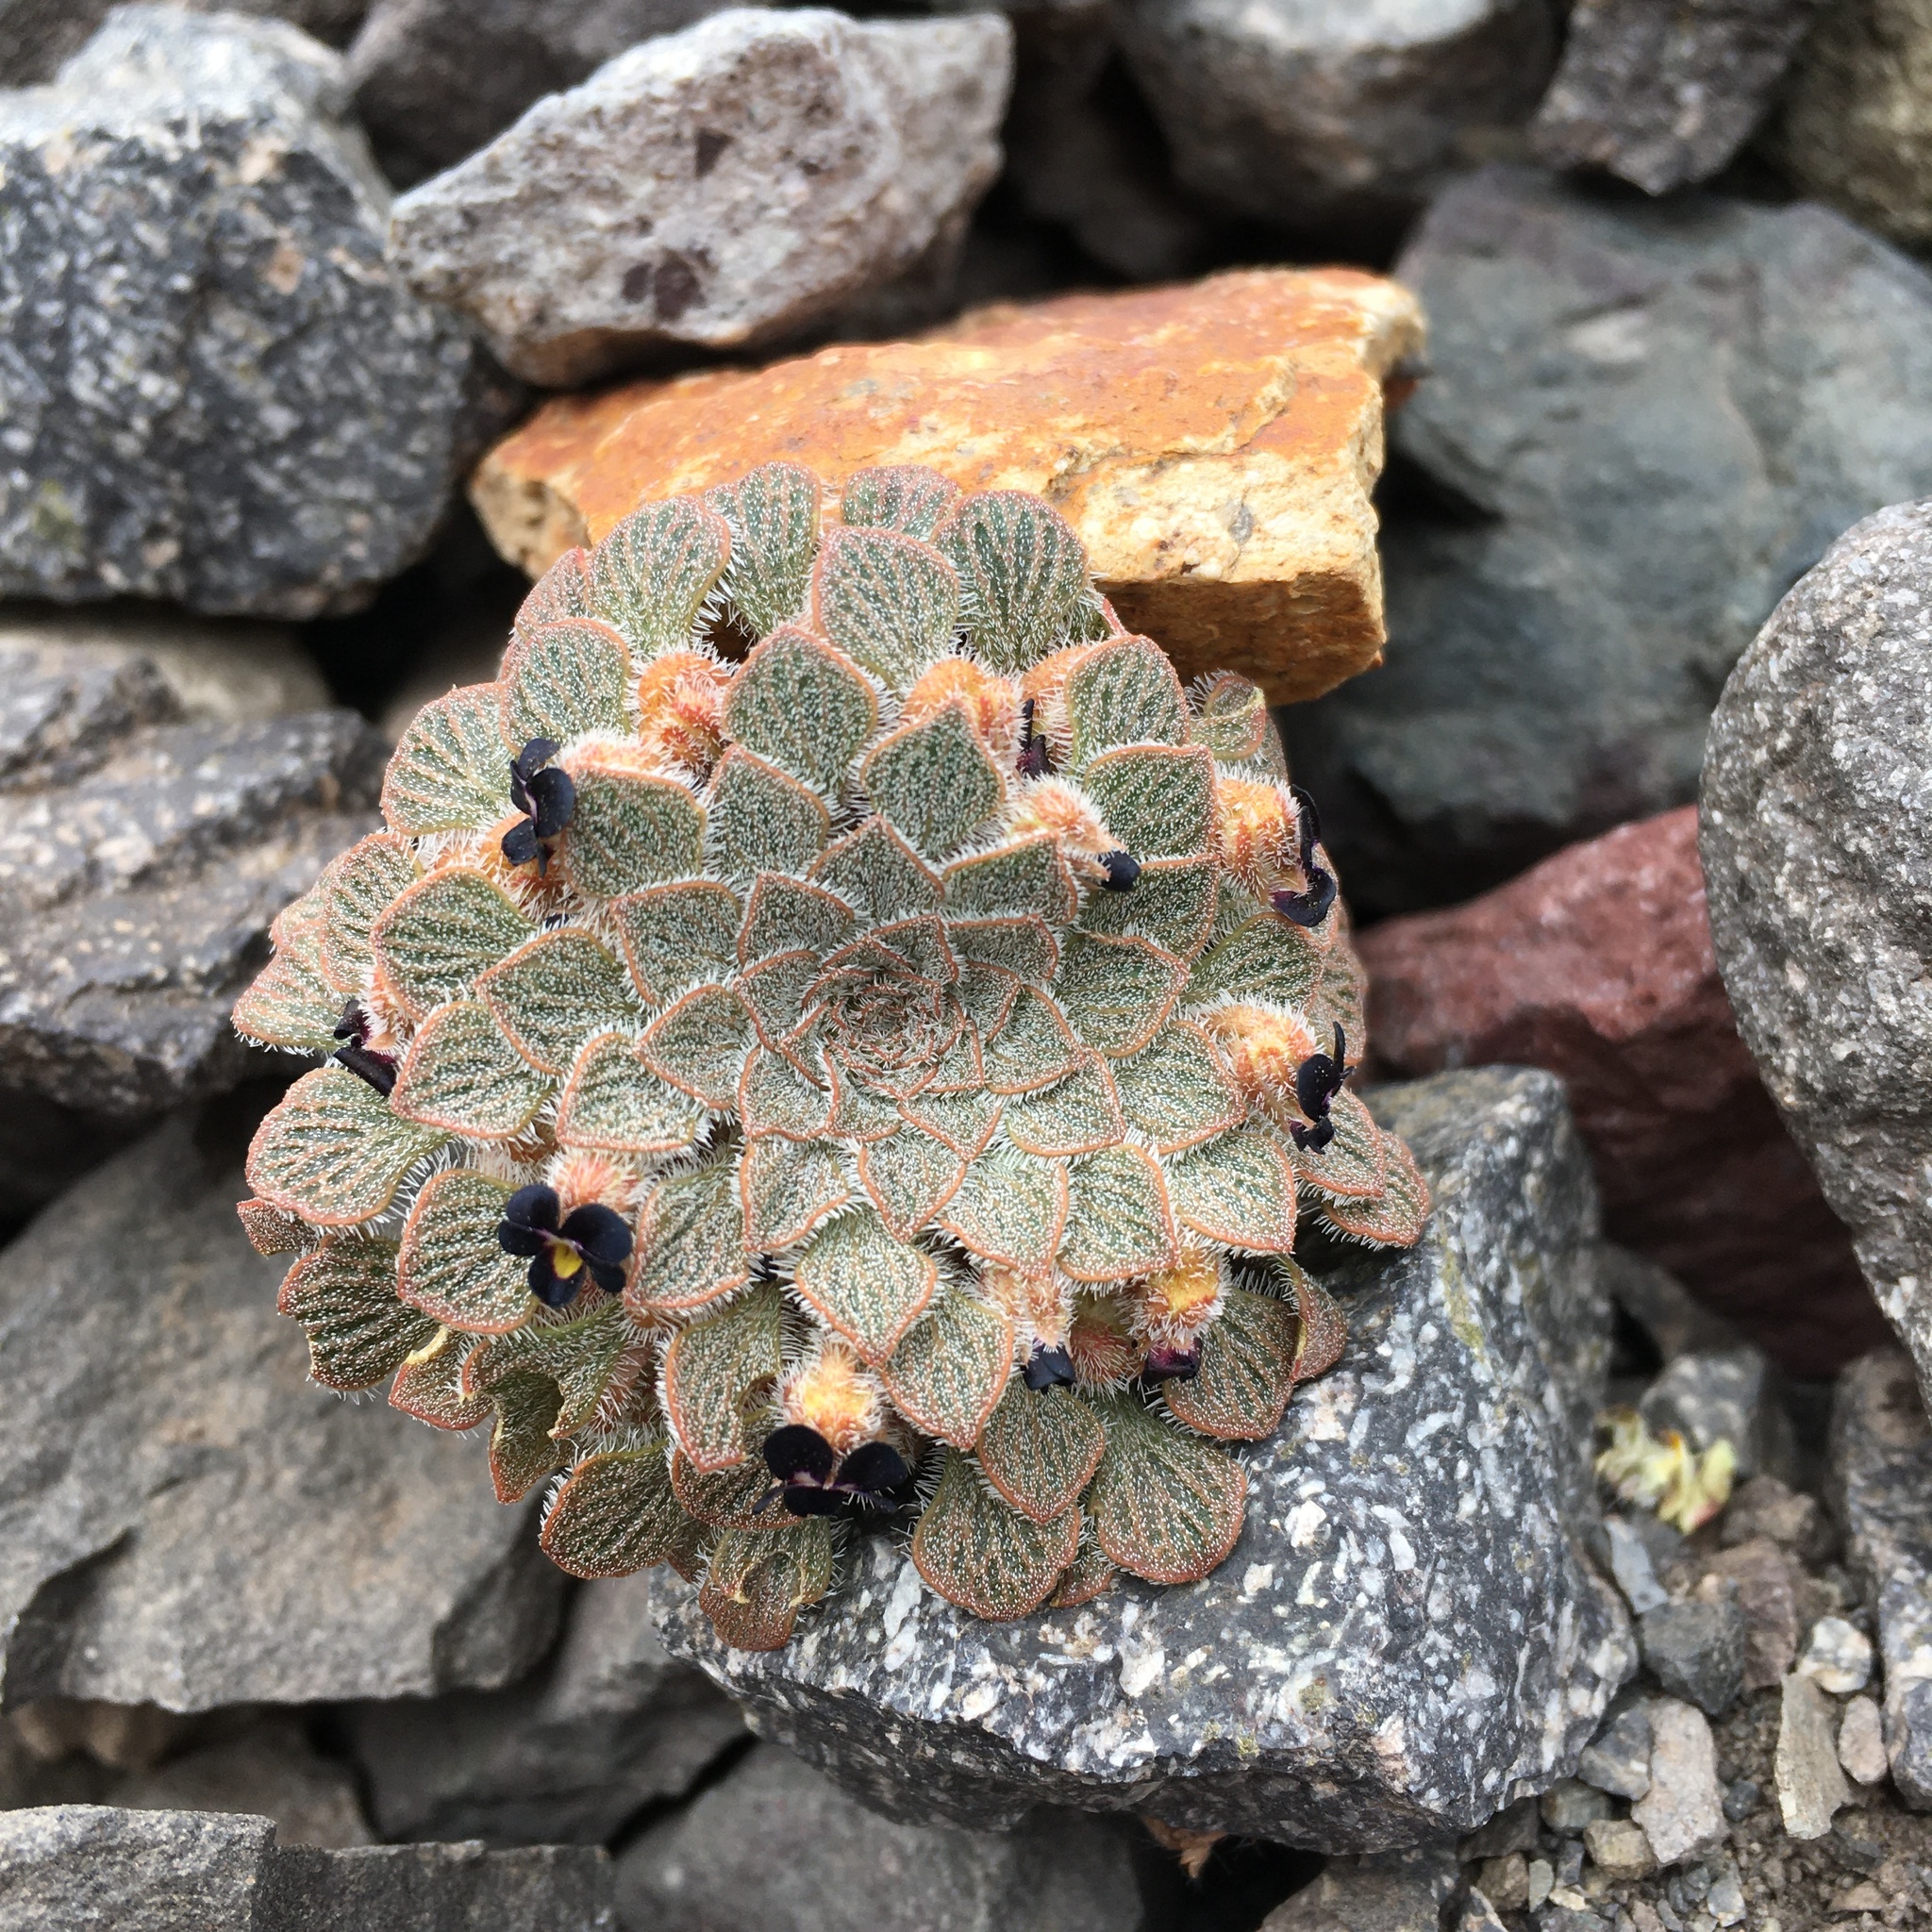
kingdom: Plantae
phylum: Tracheophyta
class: Magnoliopsida
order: Malpighiales
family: Violaceae
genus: Viola
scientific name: Viola montagnei
